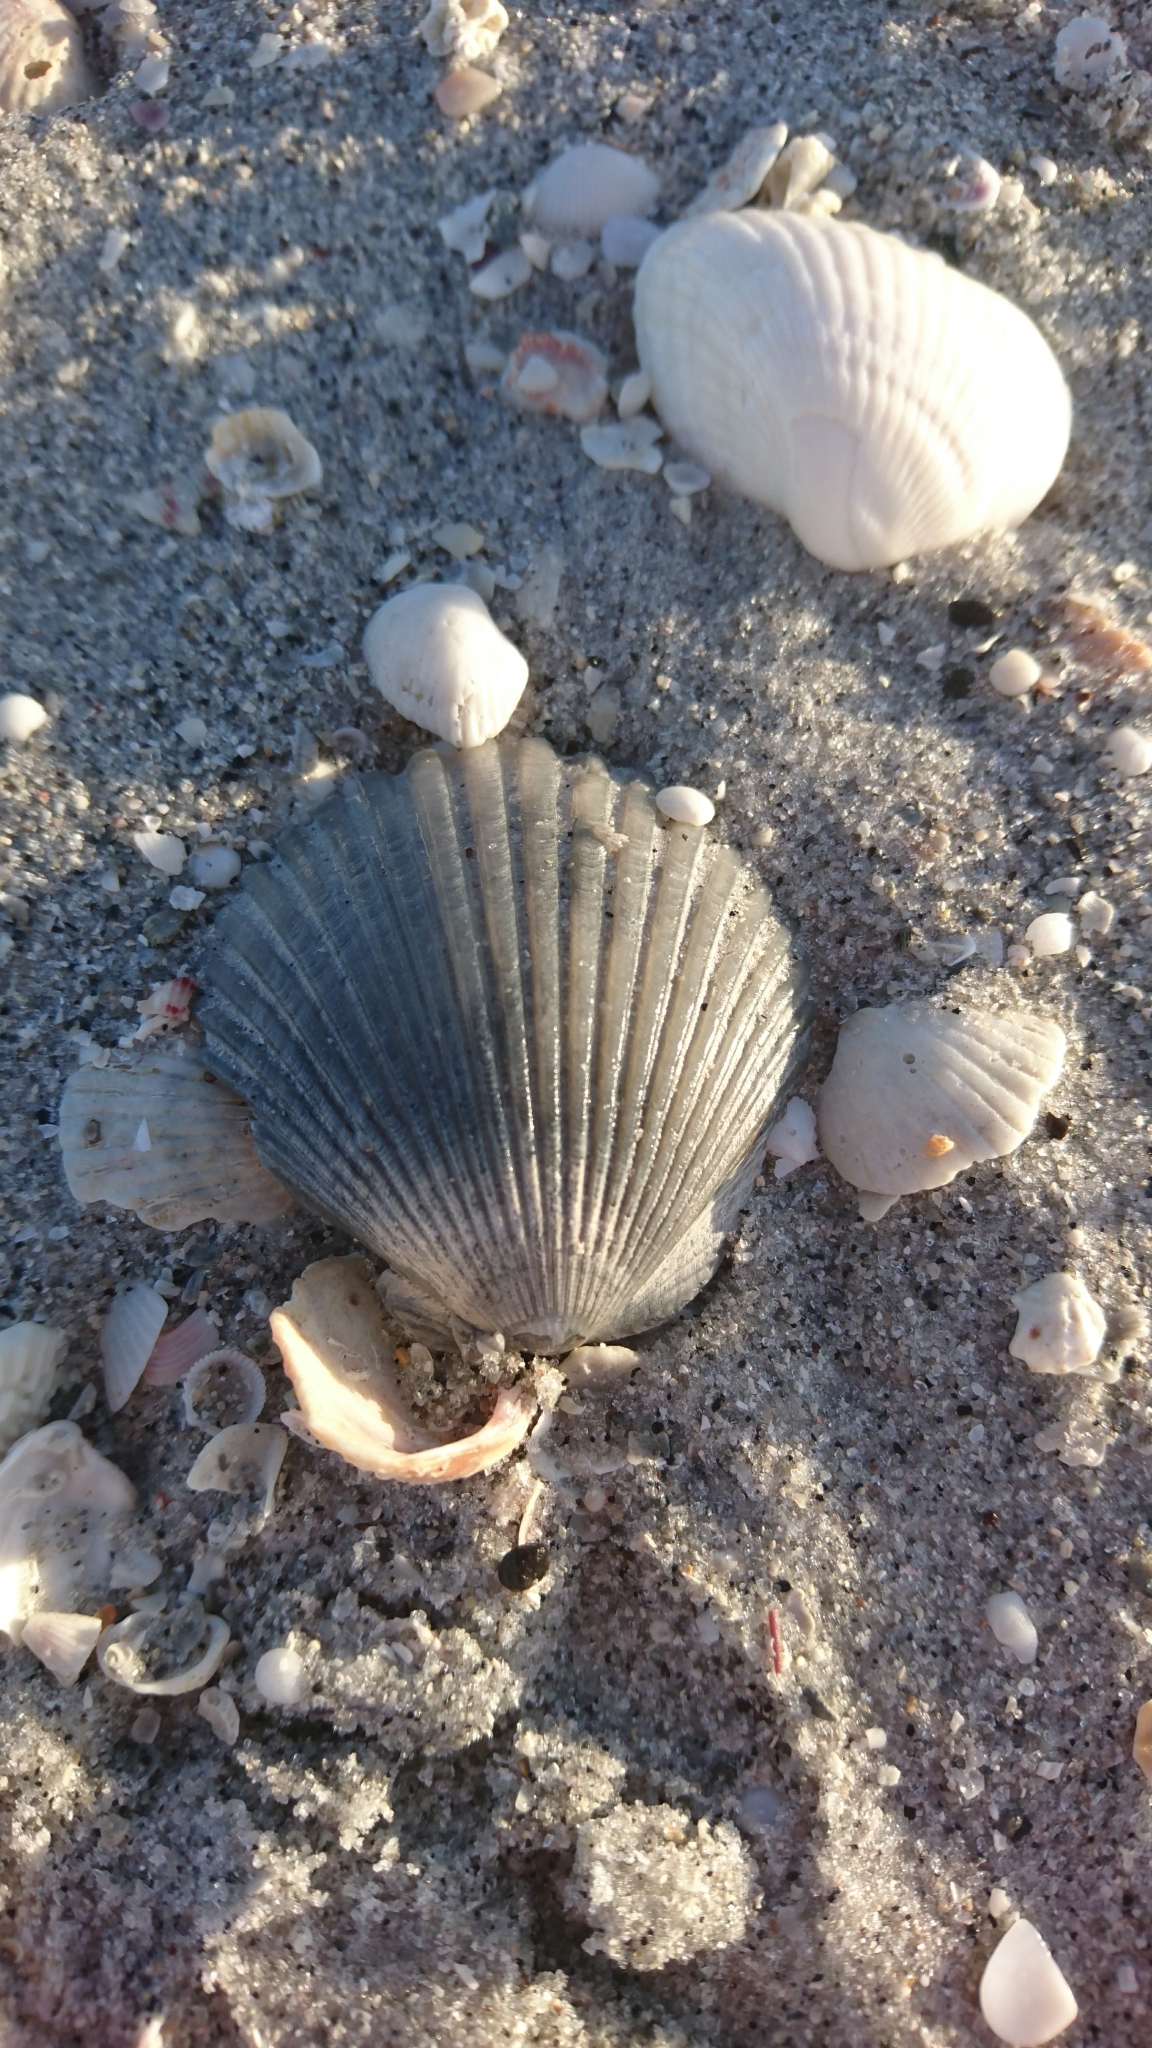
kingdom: Animalia
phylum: Mollusca
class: Bivalvia
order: Pectinida
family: Pectinidae
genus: Argopecten
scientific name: Argopecten gibbus
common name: Atlantic calico scallop
